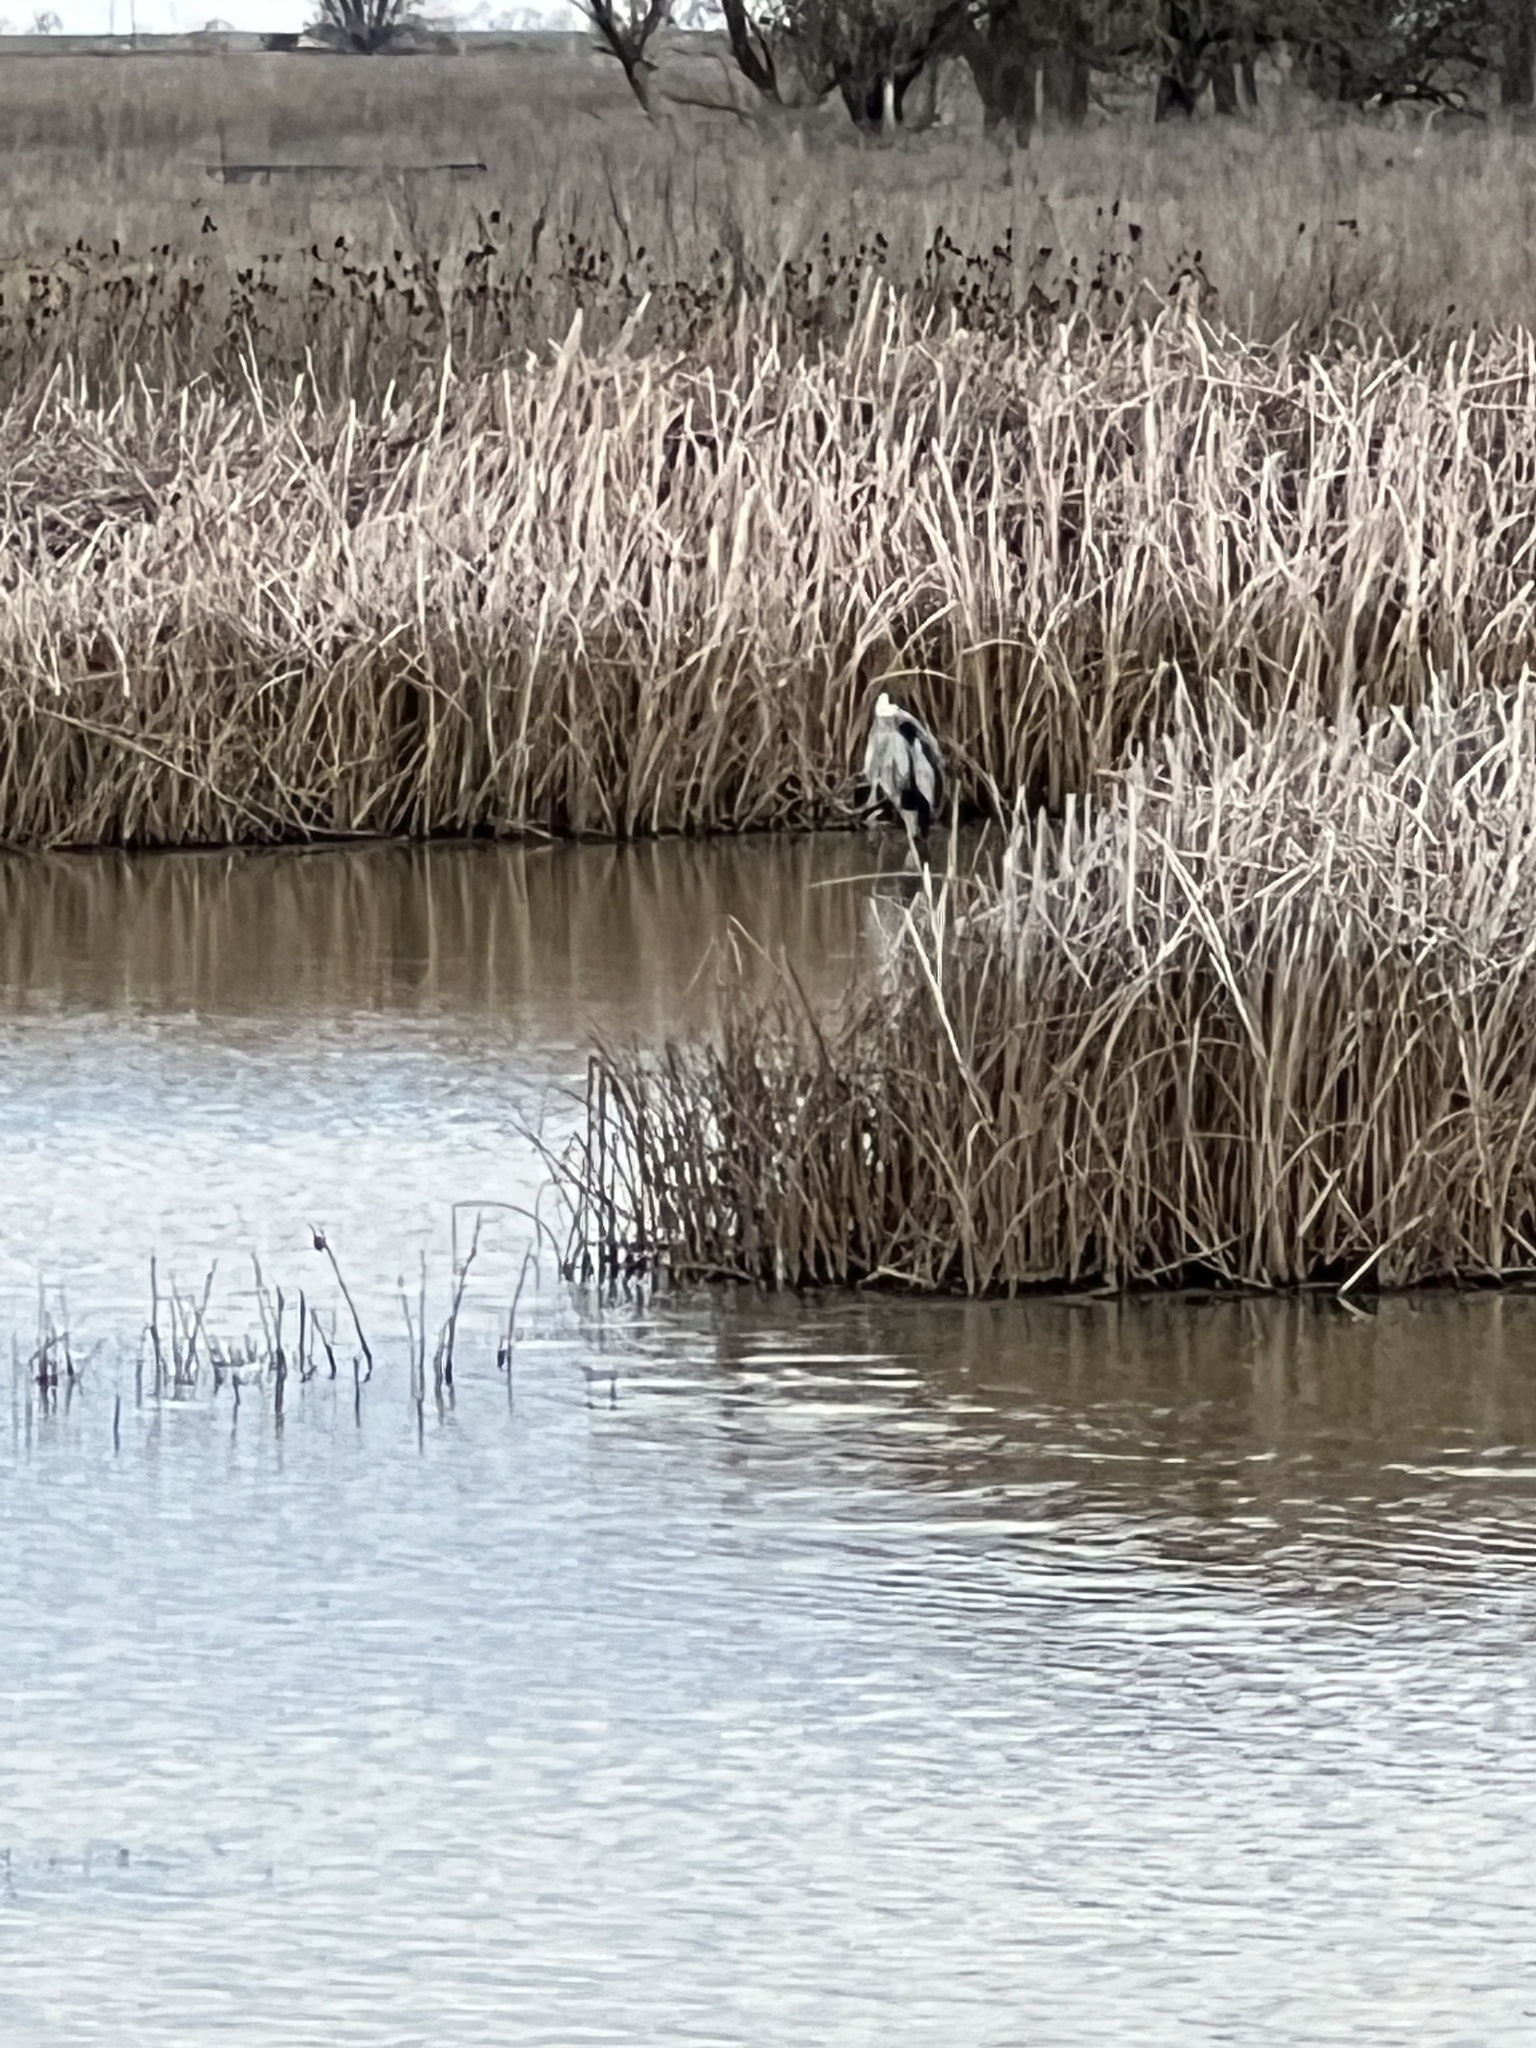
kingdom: Animalia
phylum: Chordata
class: Aves
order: Pelecaniformes
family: Ardeidae
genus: Ardea
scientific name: Ardea herodias
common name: Great blue heron
